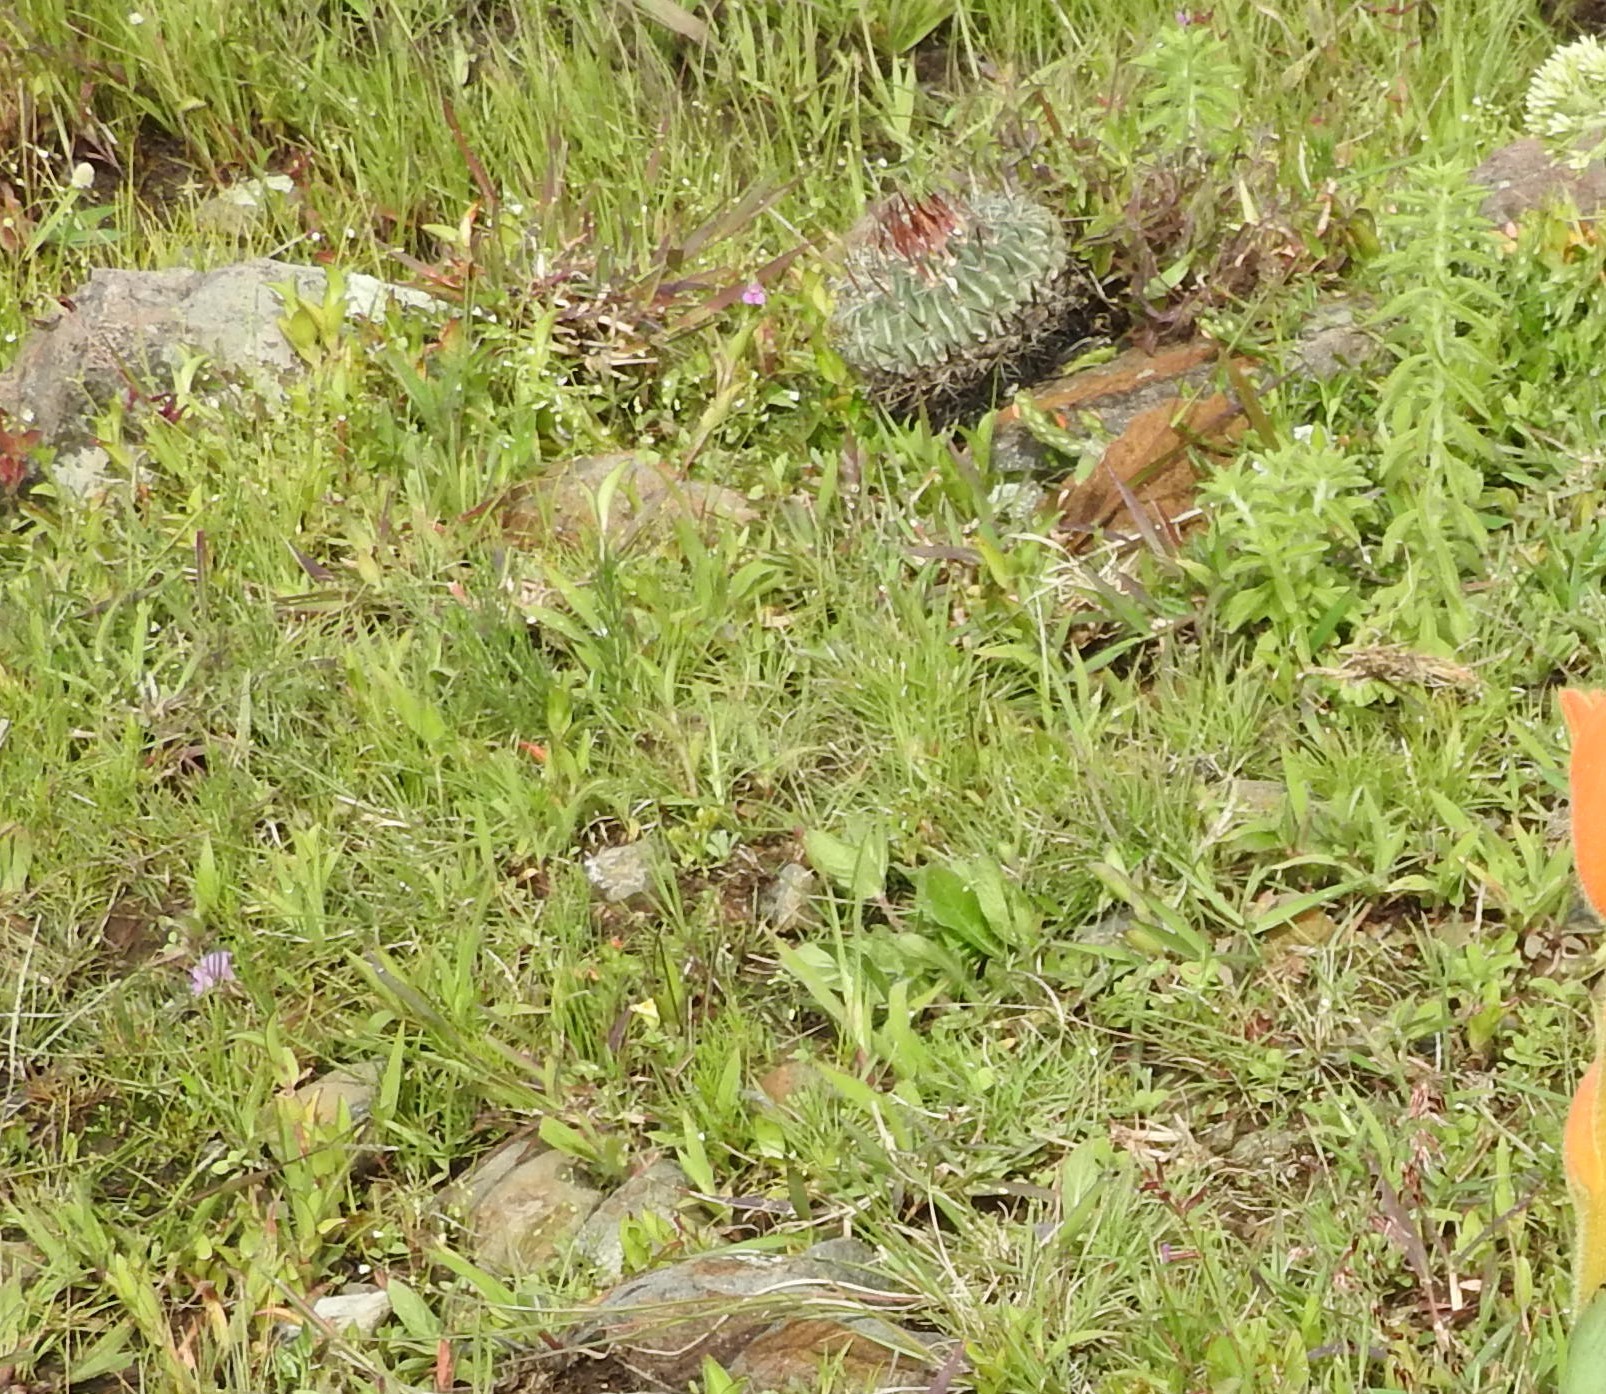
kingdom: Plantae
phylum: Tracheophyta
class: Magnoliopsida
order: Caryophyllales
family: Cactaceae
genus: Stenocactus
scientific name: Stenocactus crispatus
